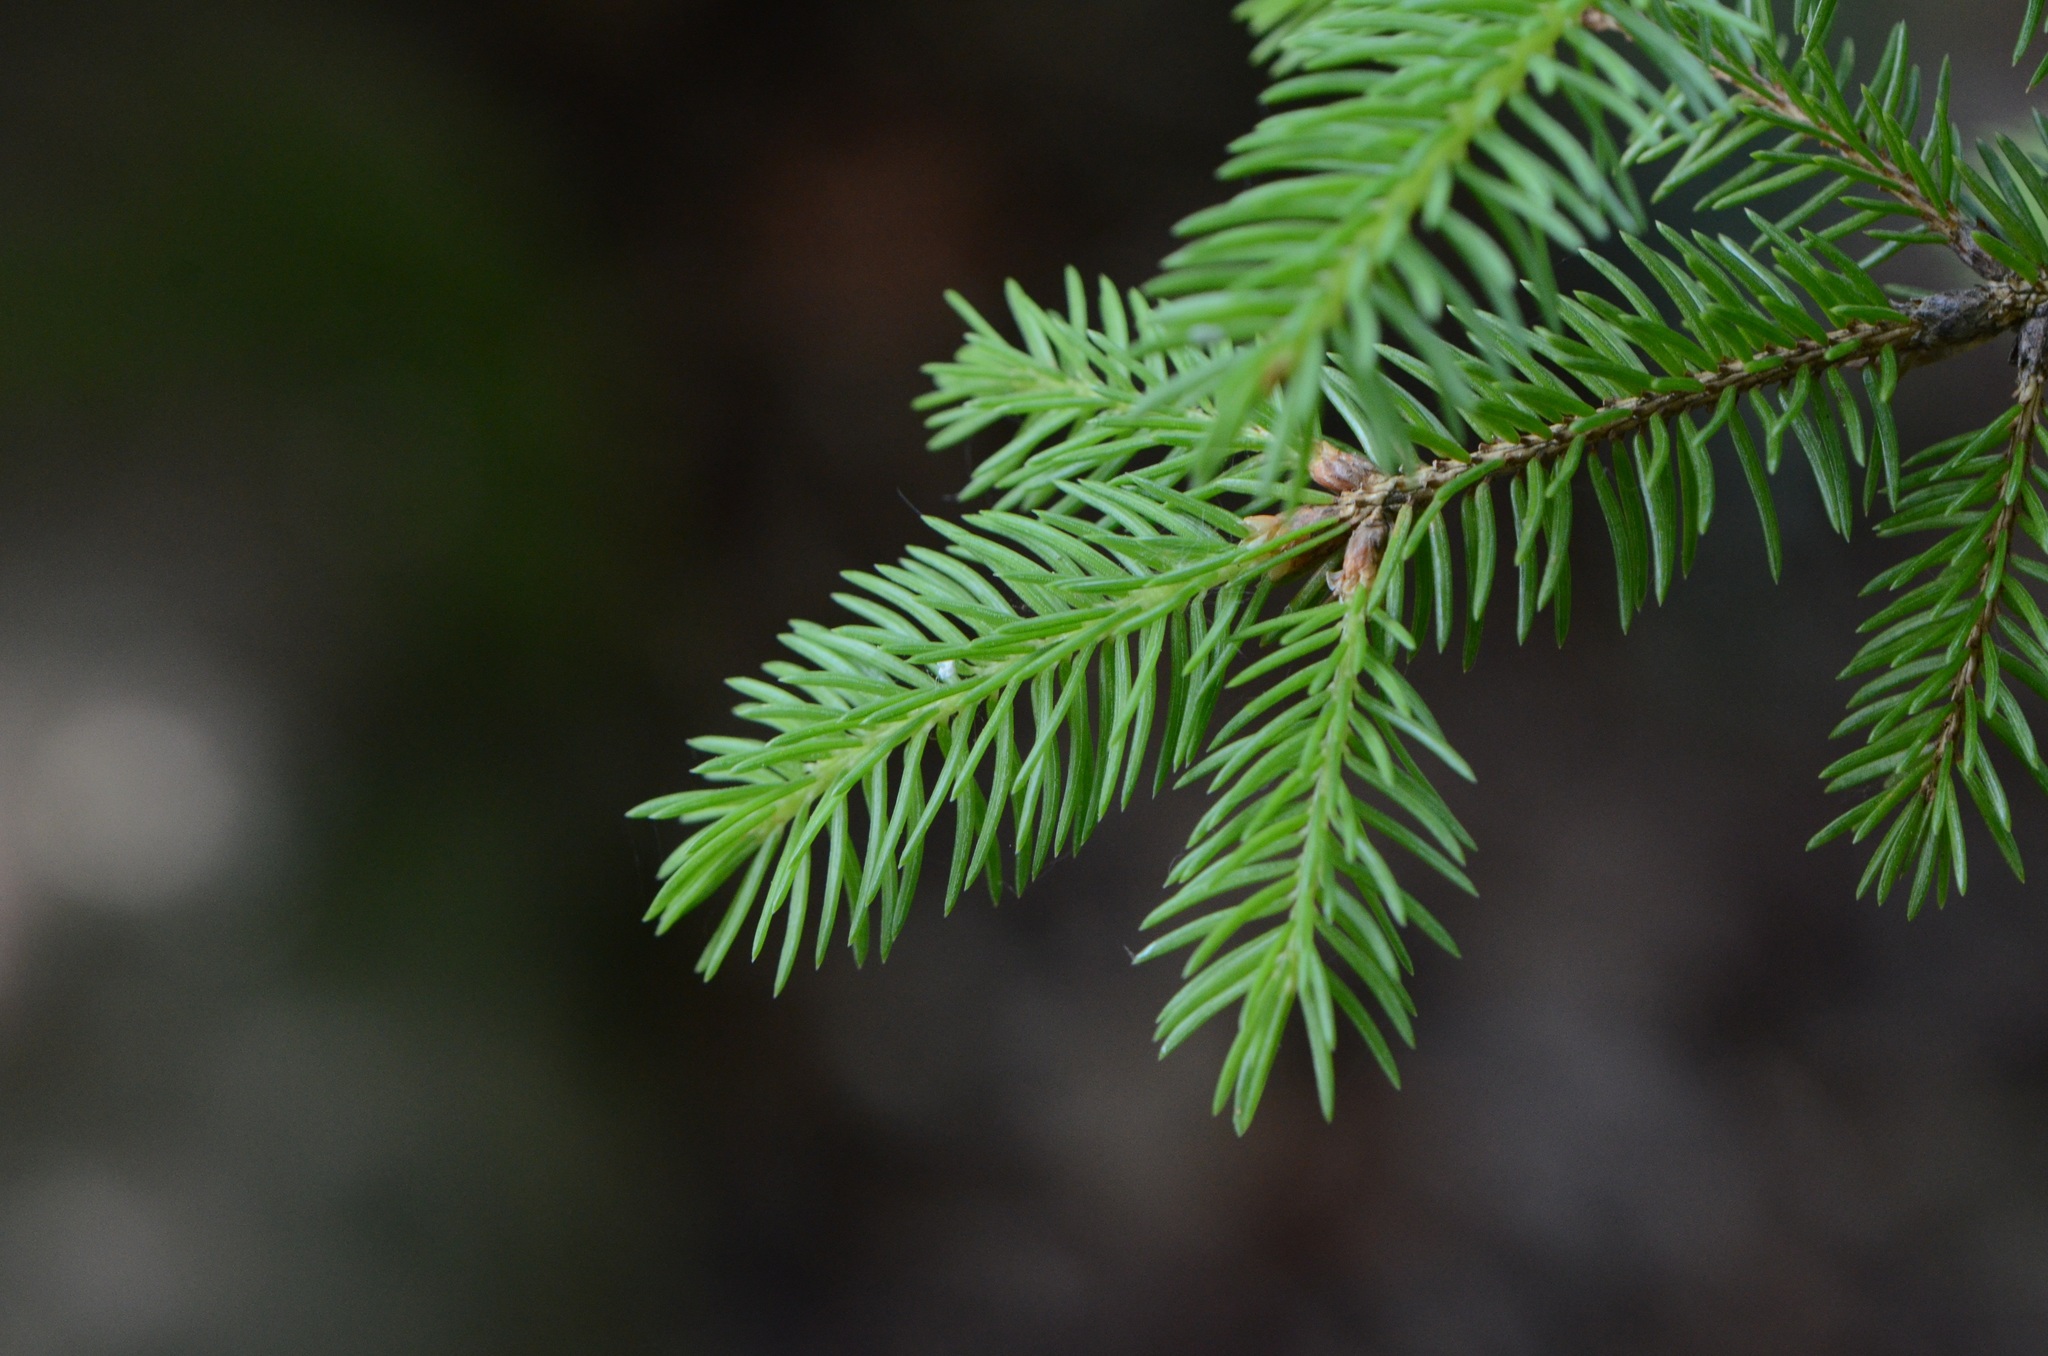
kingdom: Plantae
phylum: Tracheophyta
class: Pinopsida
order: Pinales
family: Pinaceae
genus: Picea
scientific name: Picea abies
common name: Norway spruce
